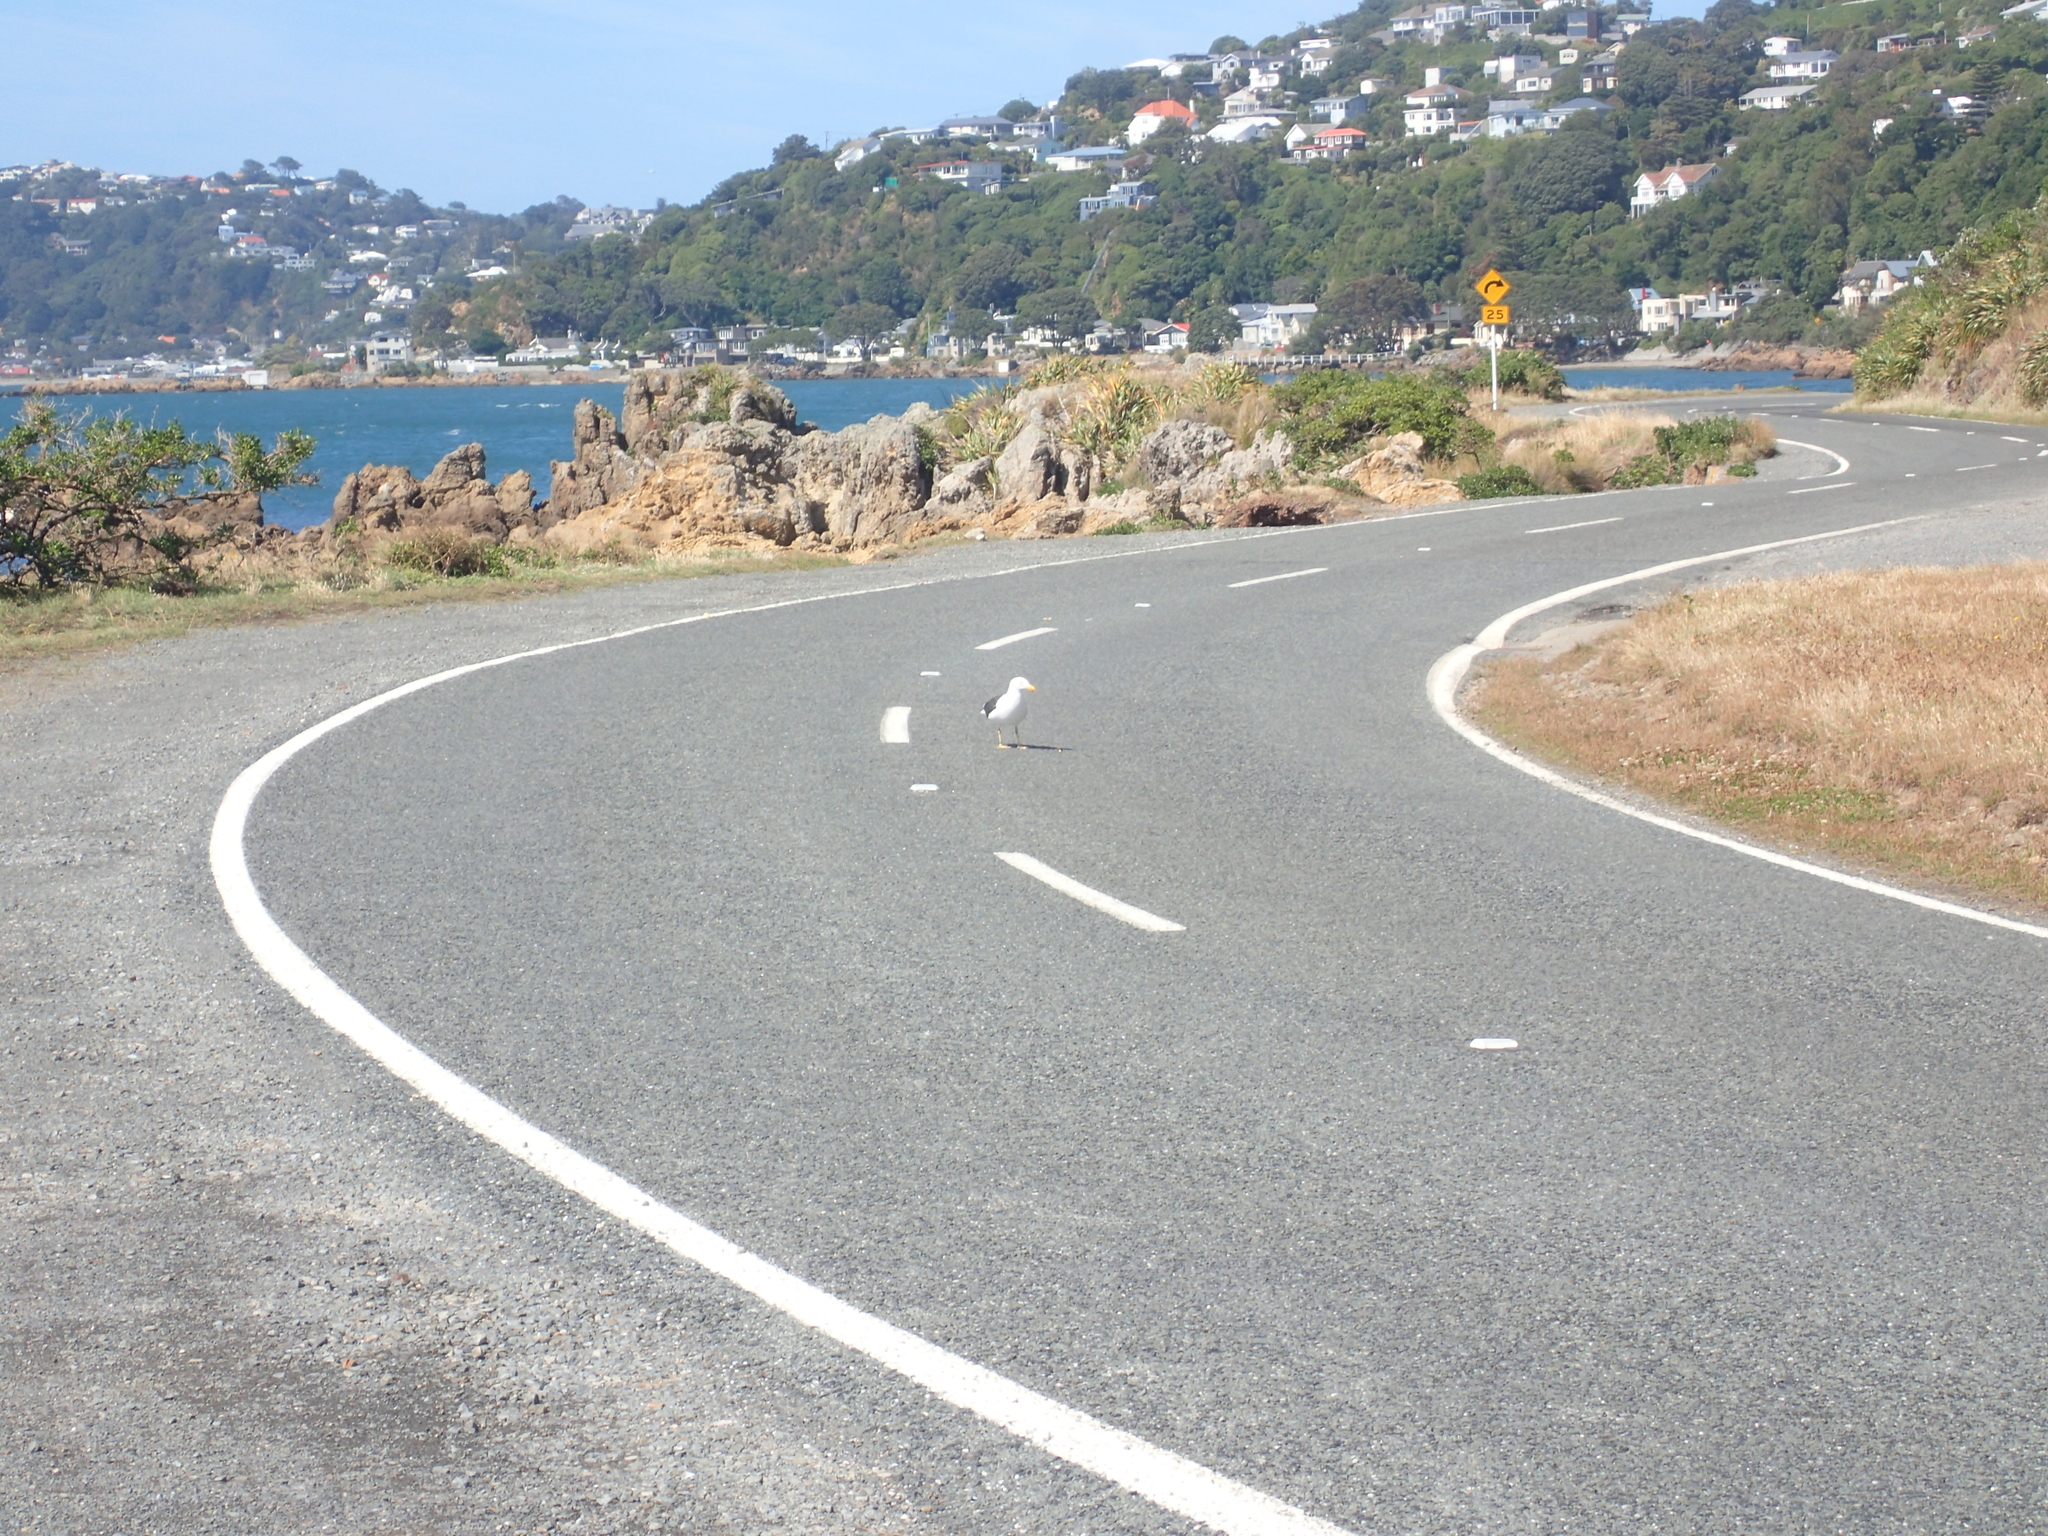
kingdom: Animalia
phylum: Chordata
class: Aves
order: Charadriiformes
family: Laridae
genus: Larus
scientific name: Larus dominicanus
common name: Kelp gull
